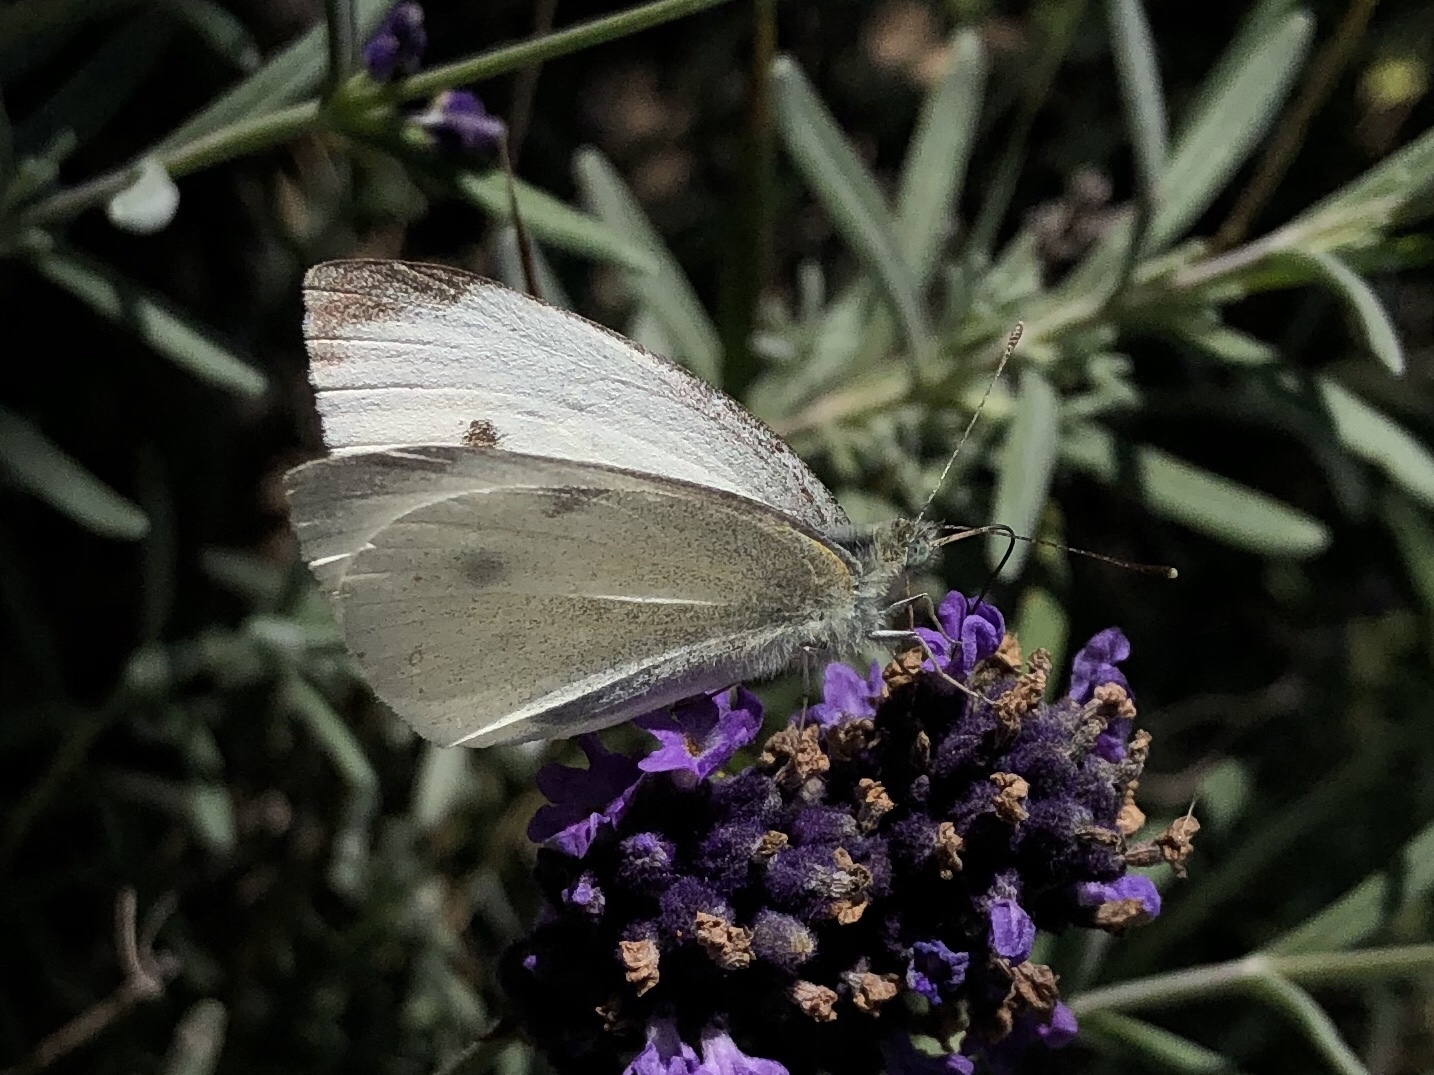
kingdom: Animalia
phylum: Arthropoda
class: Insecta
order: Lepidoptera
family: Pieridae
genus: Pieris
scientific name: Pieris rapae
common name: Small white
